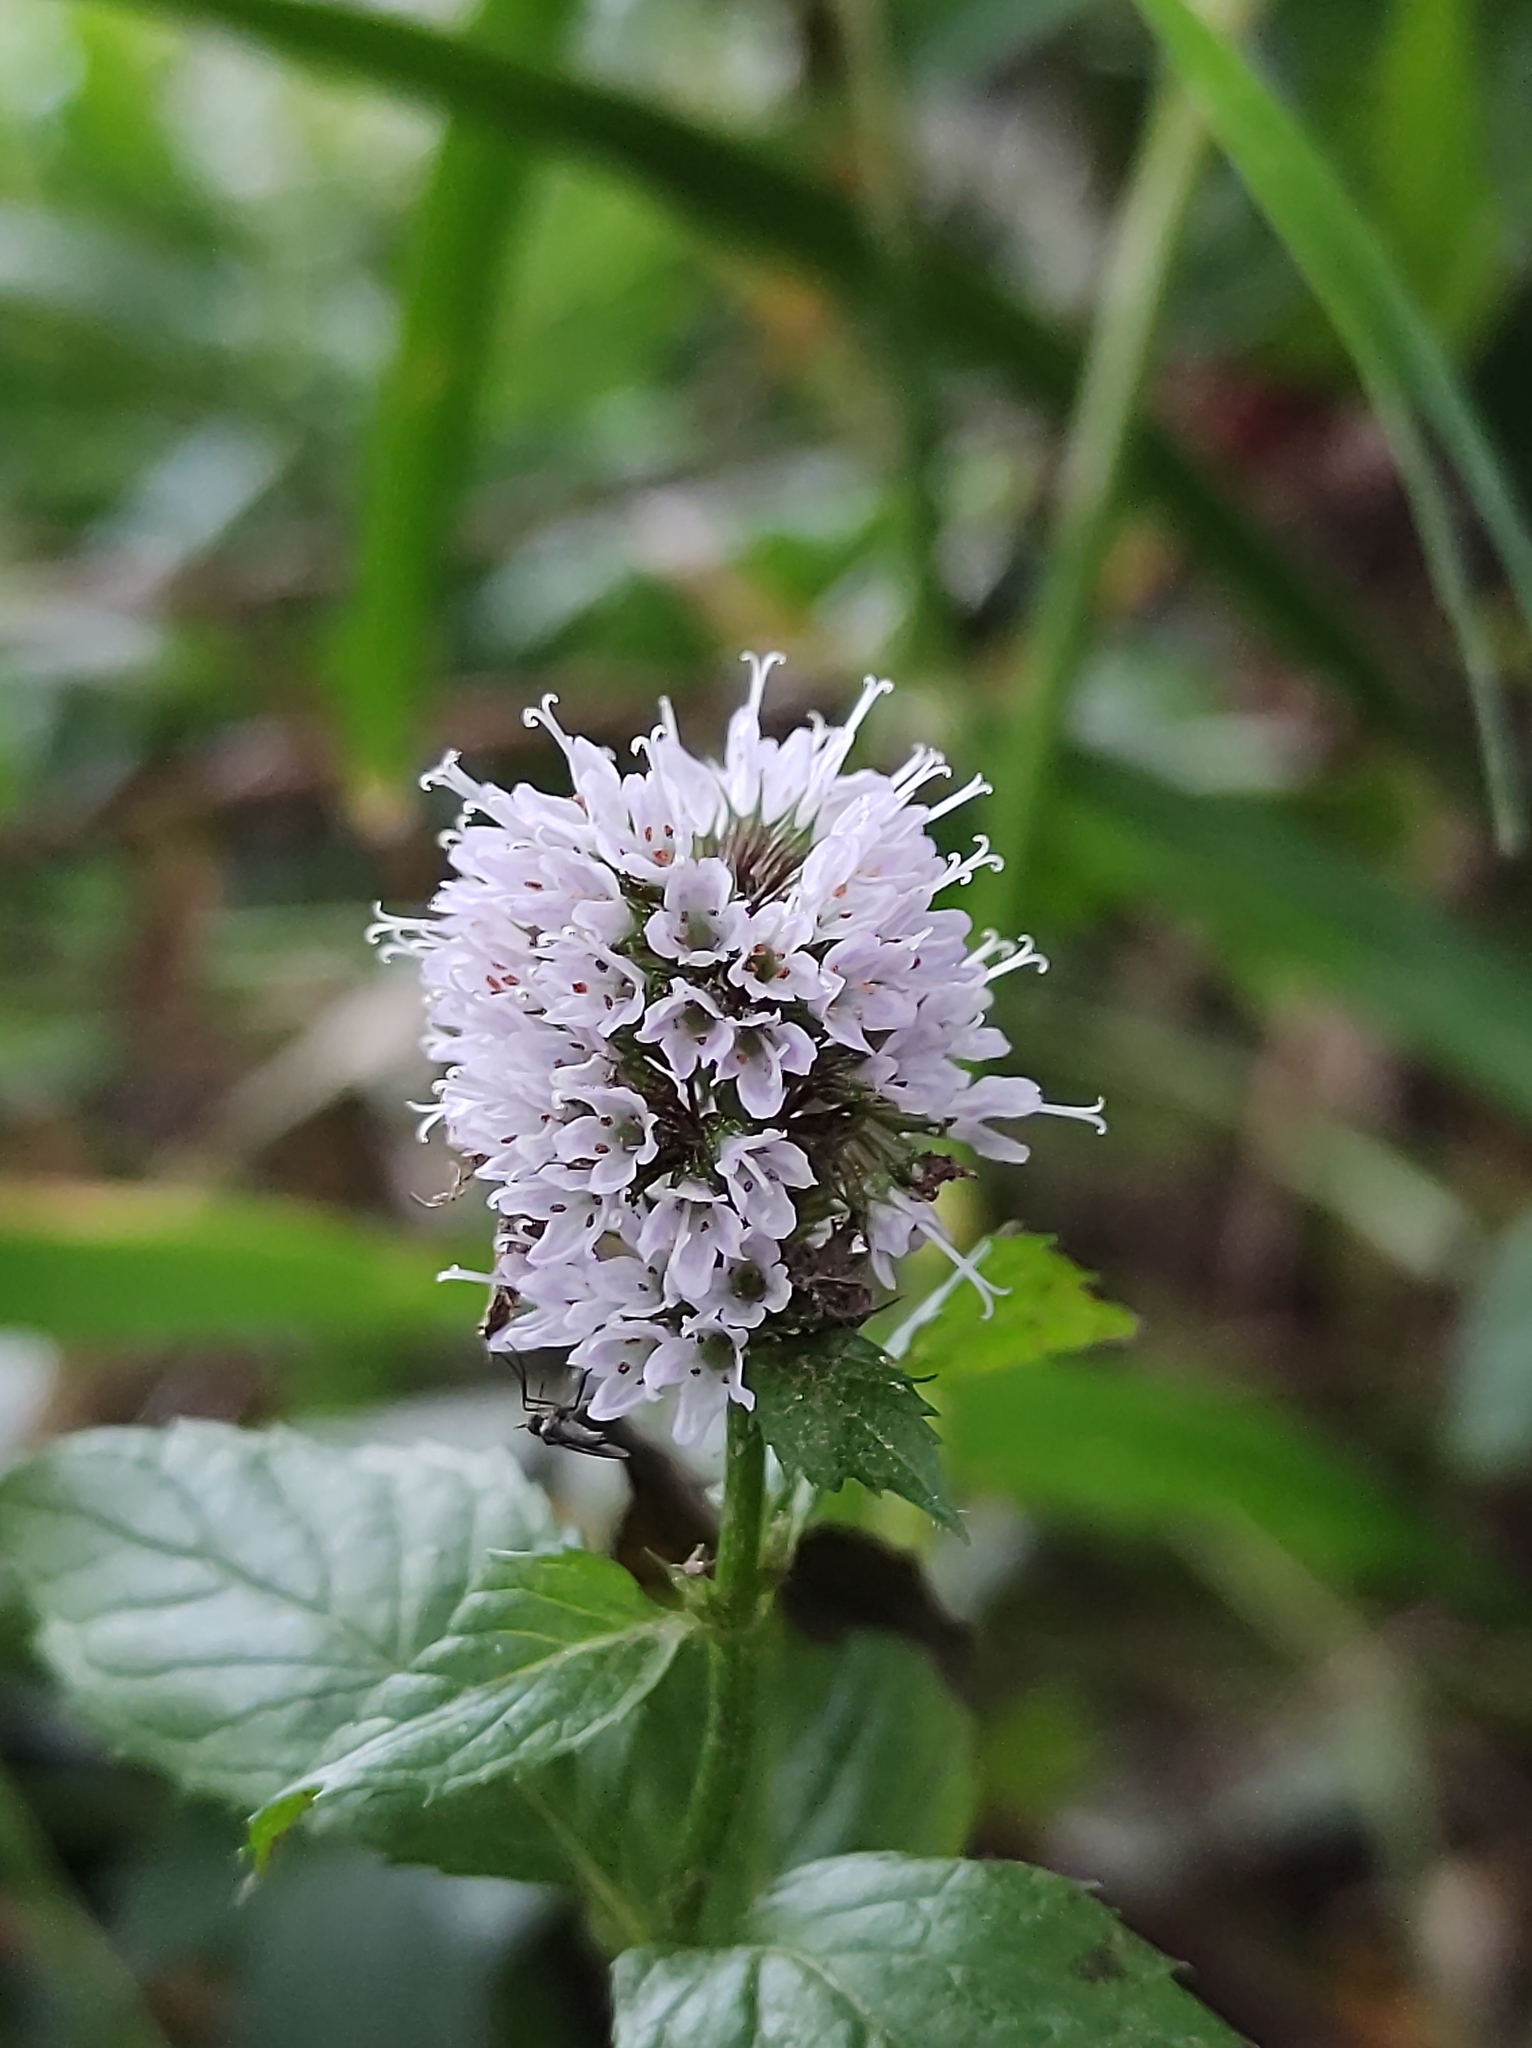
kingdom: Plantae
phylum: Tracheophyta
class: Magnoliopsida
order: Lamiales
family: Lamiaceae
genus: Mentha
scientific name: Mentha aquatica
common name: Water mint
